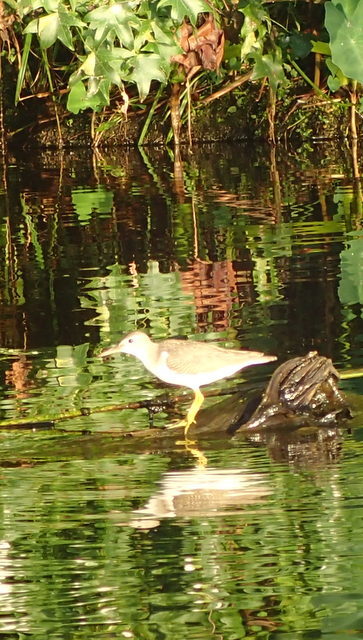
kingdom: Animalia
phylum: Chordata
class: Aves
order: Charadriiformes
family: Scolopacidae
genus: Actitis
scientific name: Actitis macularius
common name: Spotted sandpiper
